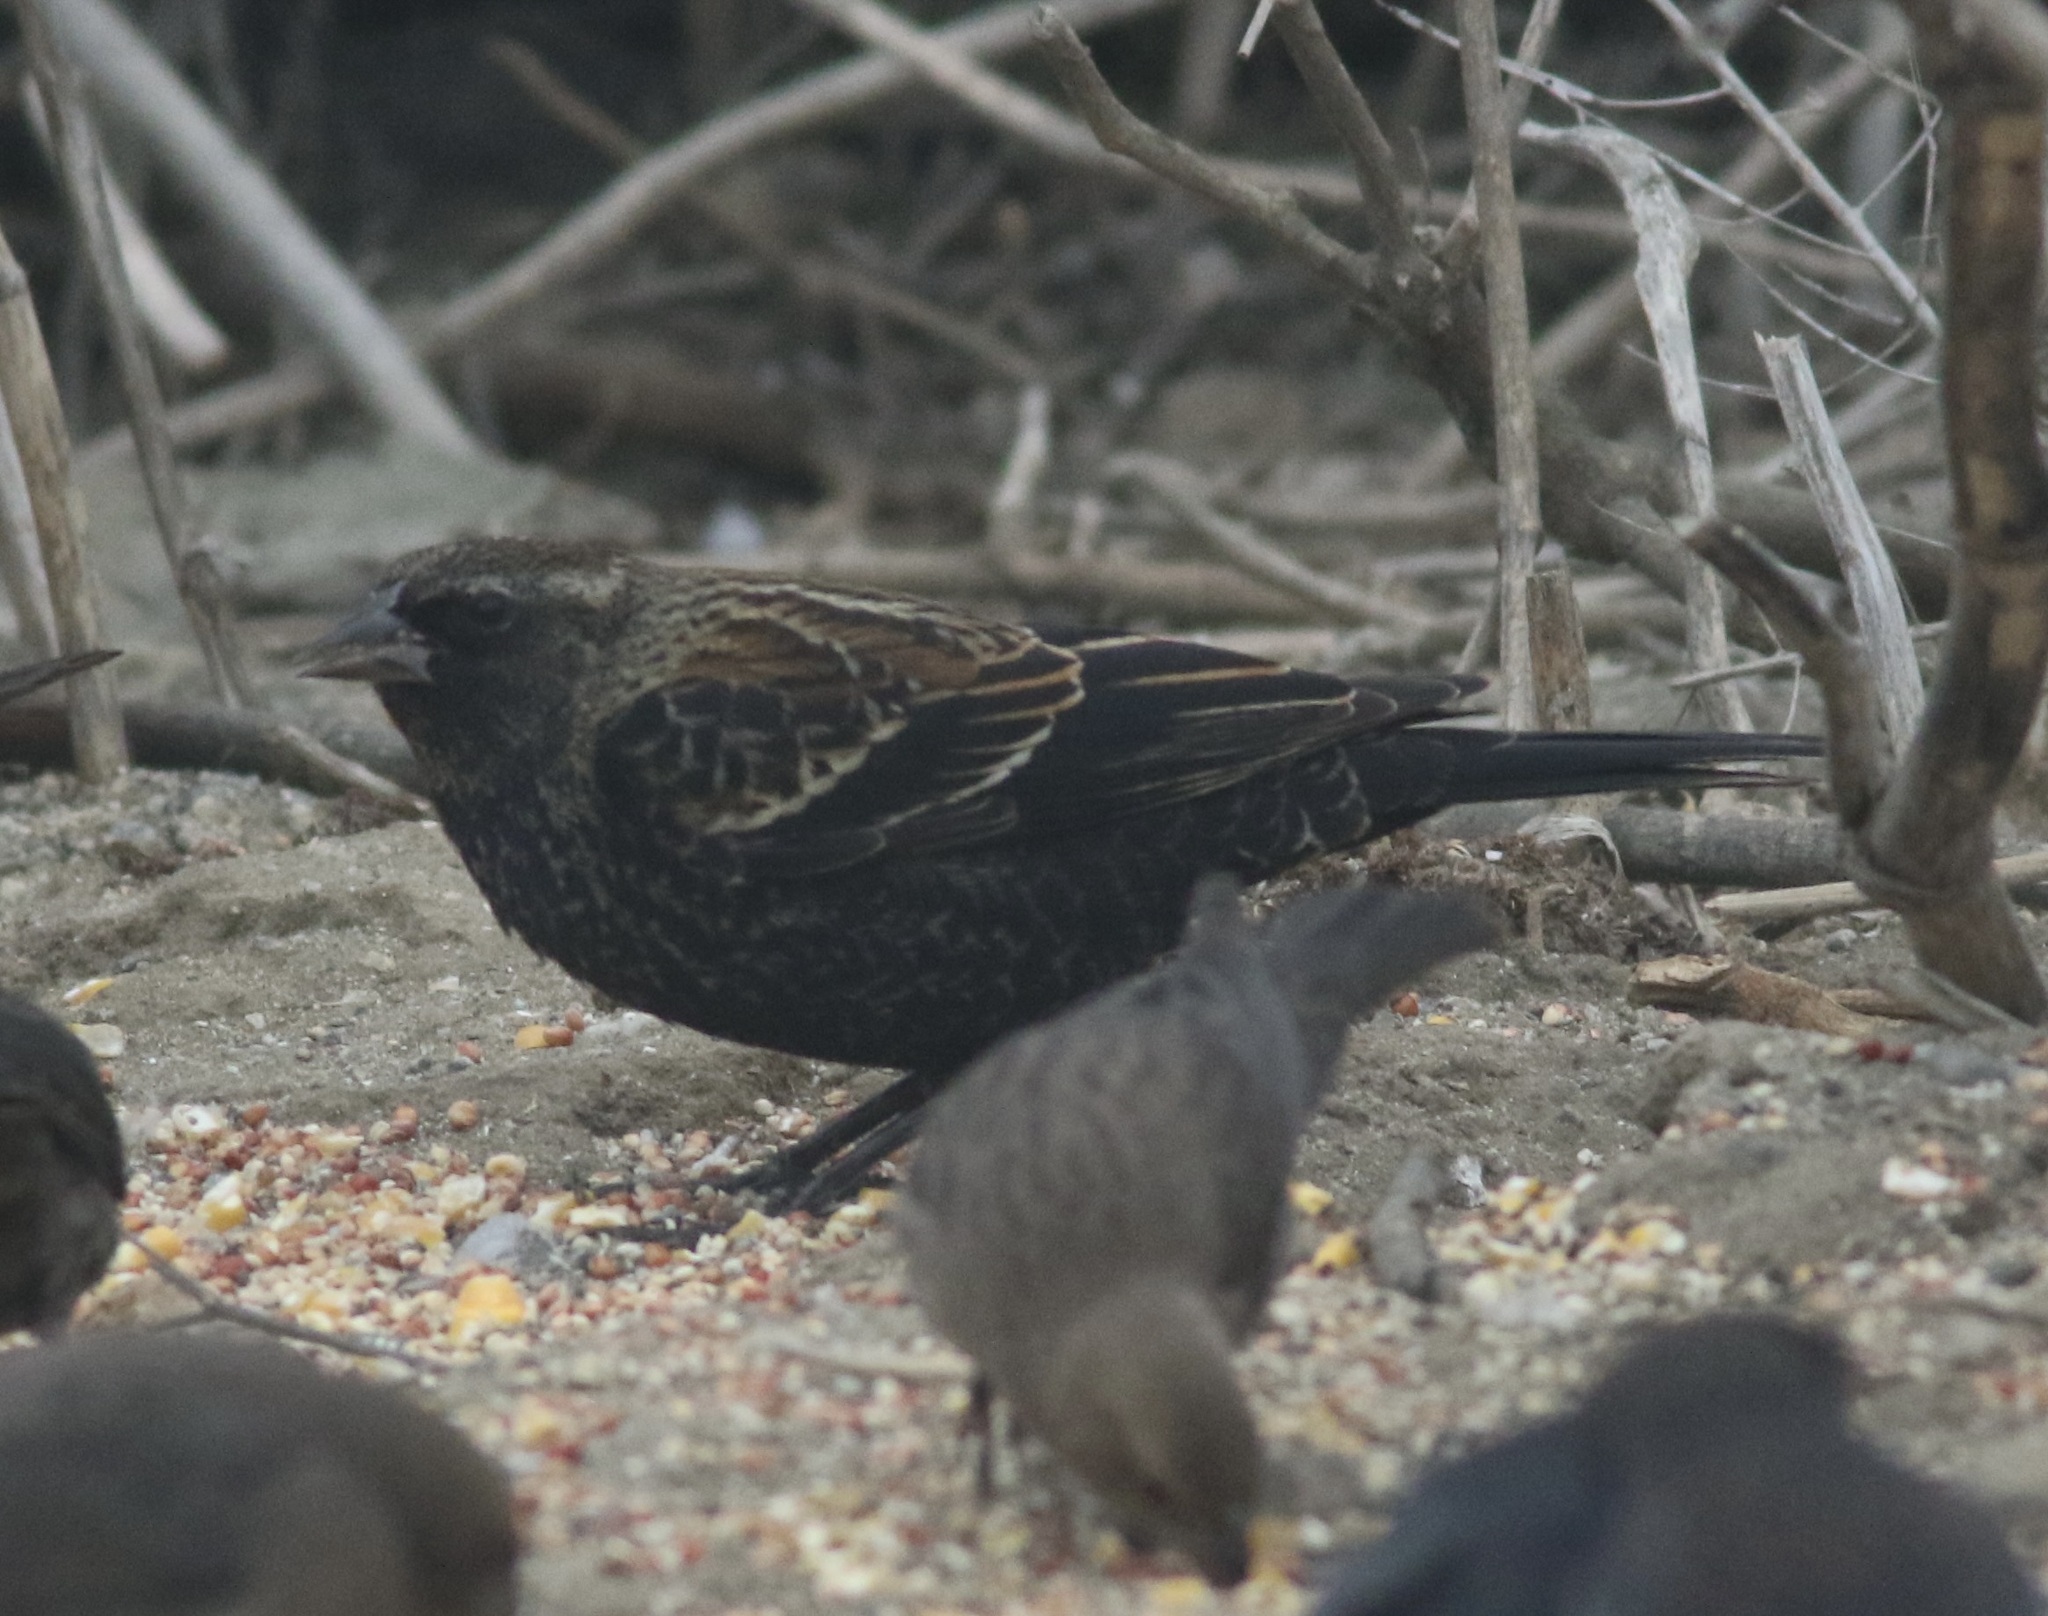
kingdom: Animalia
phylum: Chordata
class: Aves
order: Passeriformes
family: Icteridae
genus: Agelaius
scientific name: Agelaius phoeniceus
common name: Red-winged blackbird
